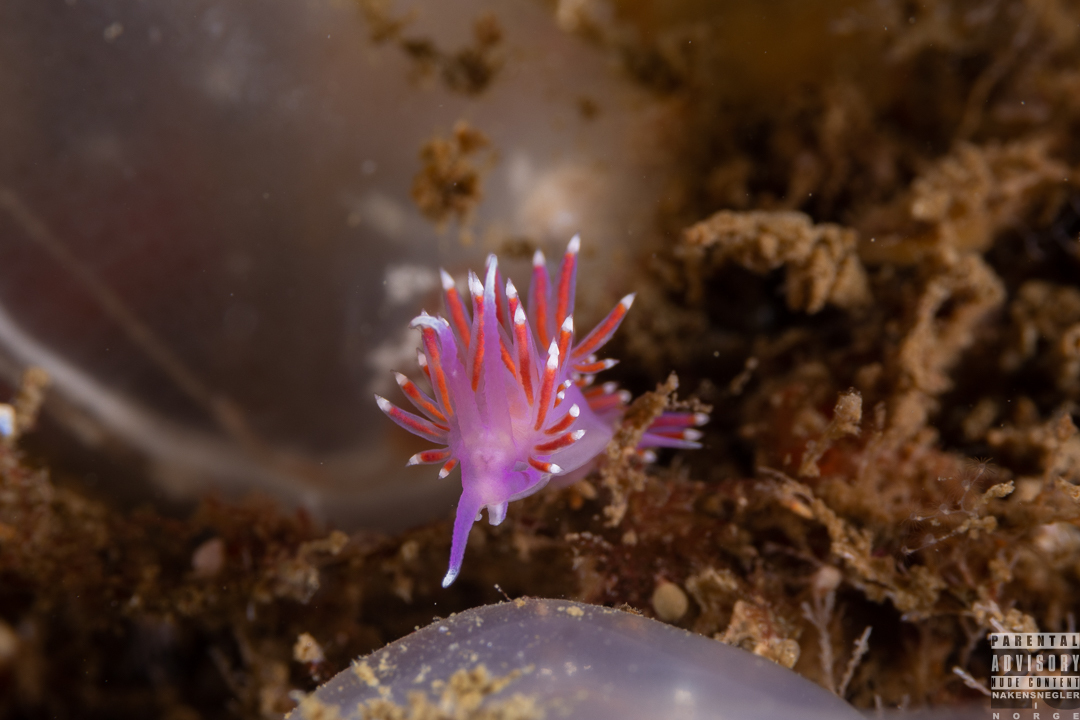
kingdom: Animalia
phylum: Mollusca
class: Gastropoda
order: Nudibranchia
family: Flabellinidae
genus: Edmundsella
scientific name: Edmundsella pedata
